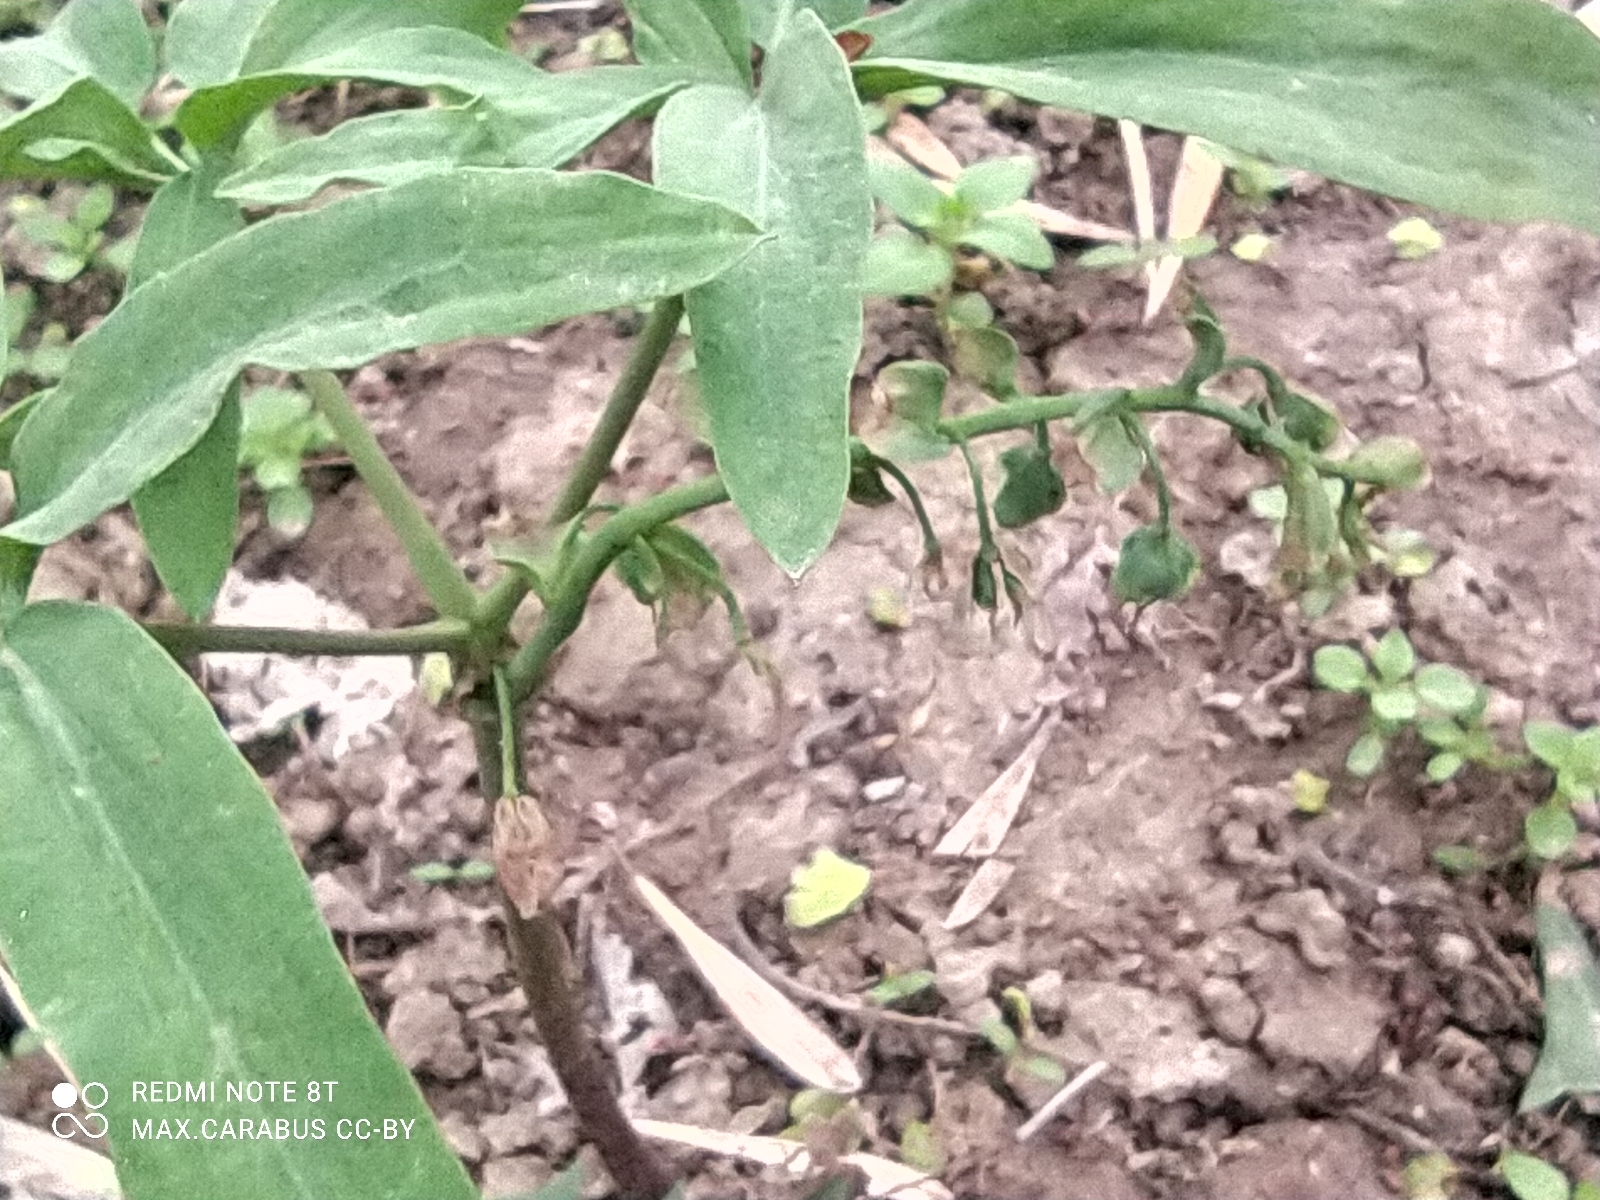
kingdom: Plantae
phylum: Tracheophyta
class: Magnoliopsida
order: Ranunculales
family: Berberidaceae
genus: Gymnospermium
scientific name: Gymnospermium alberti
